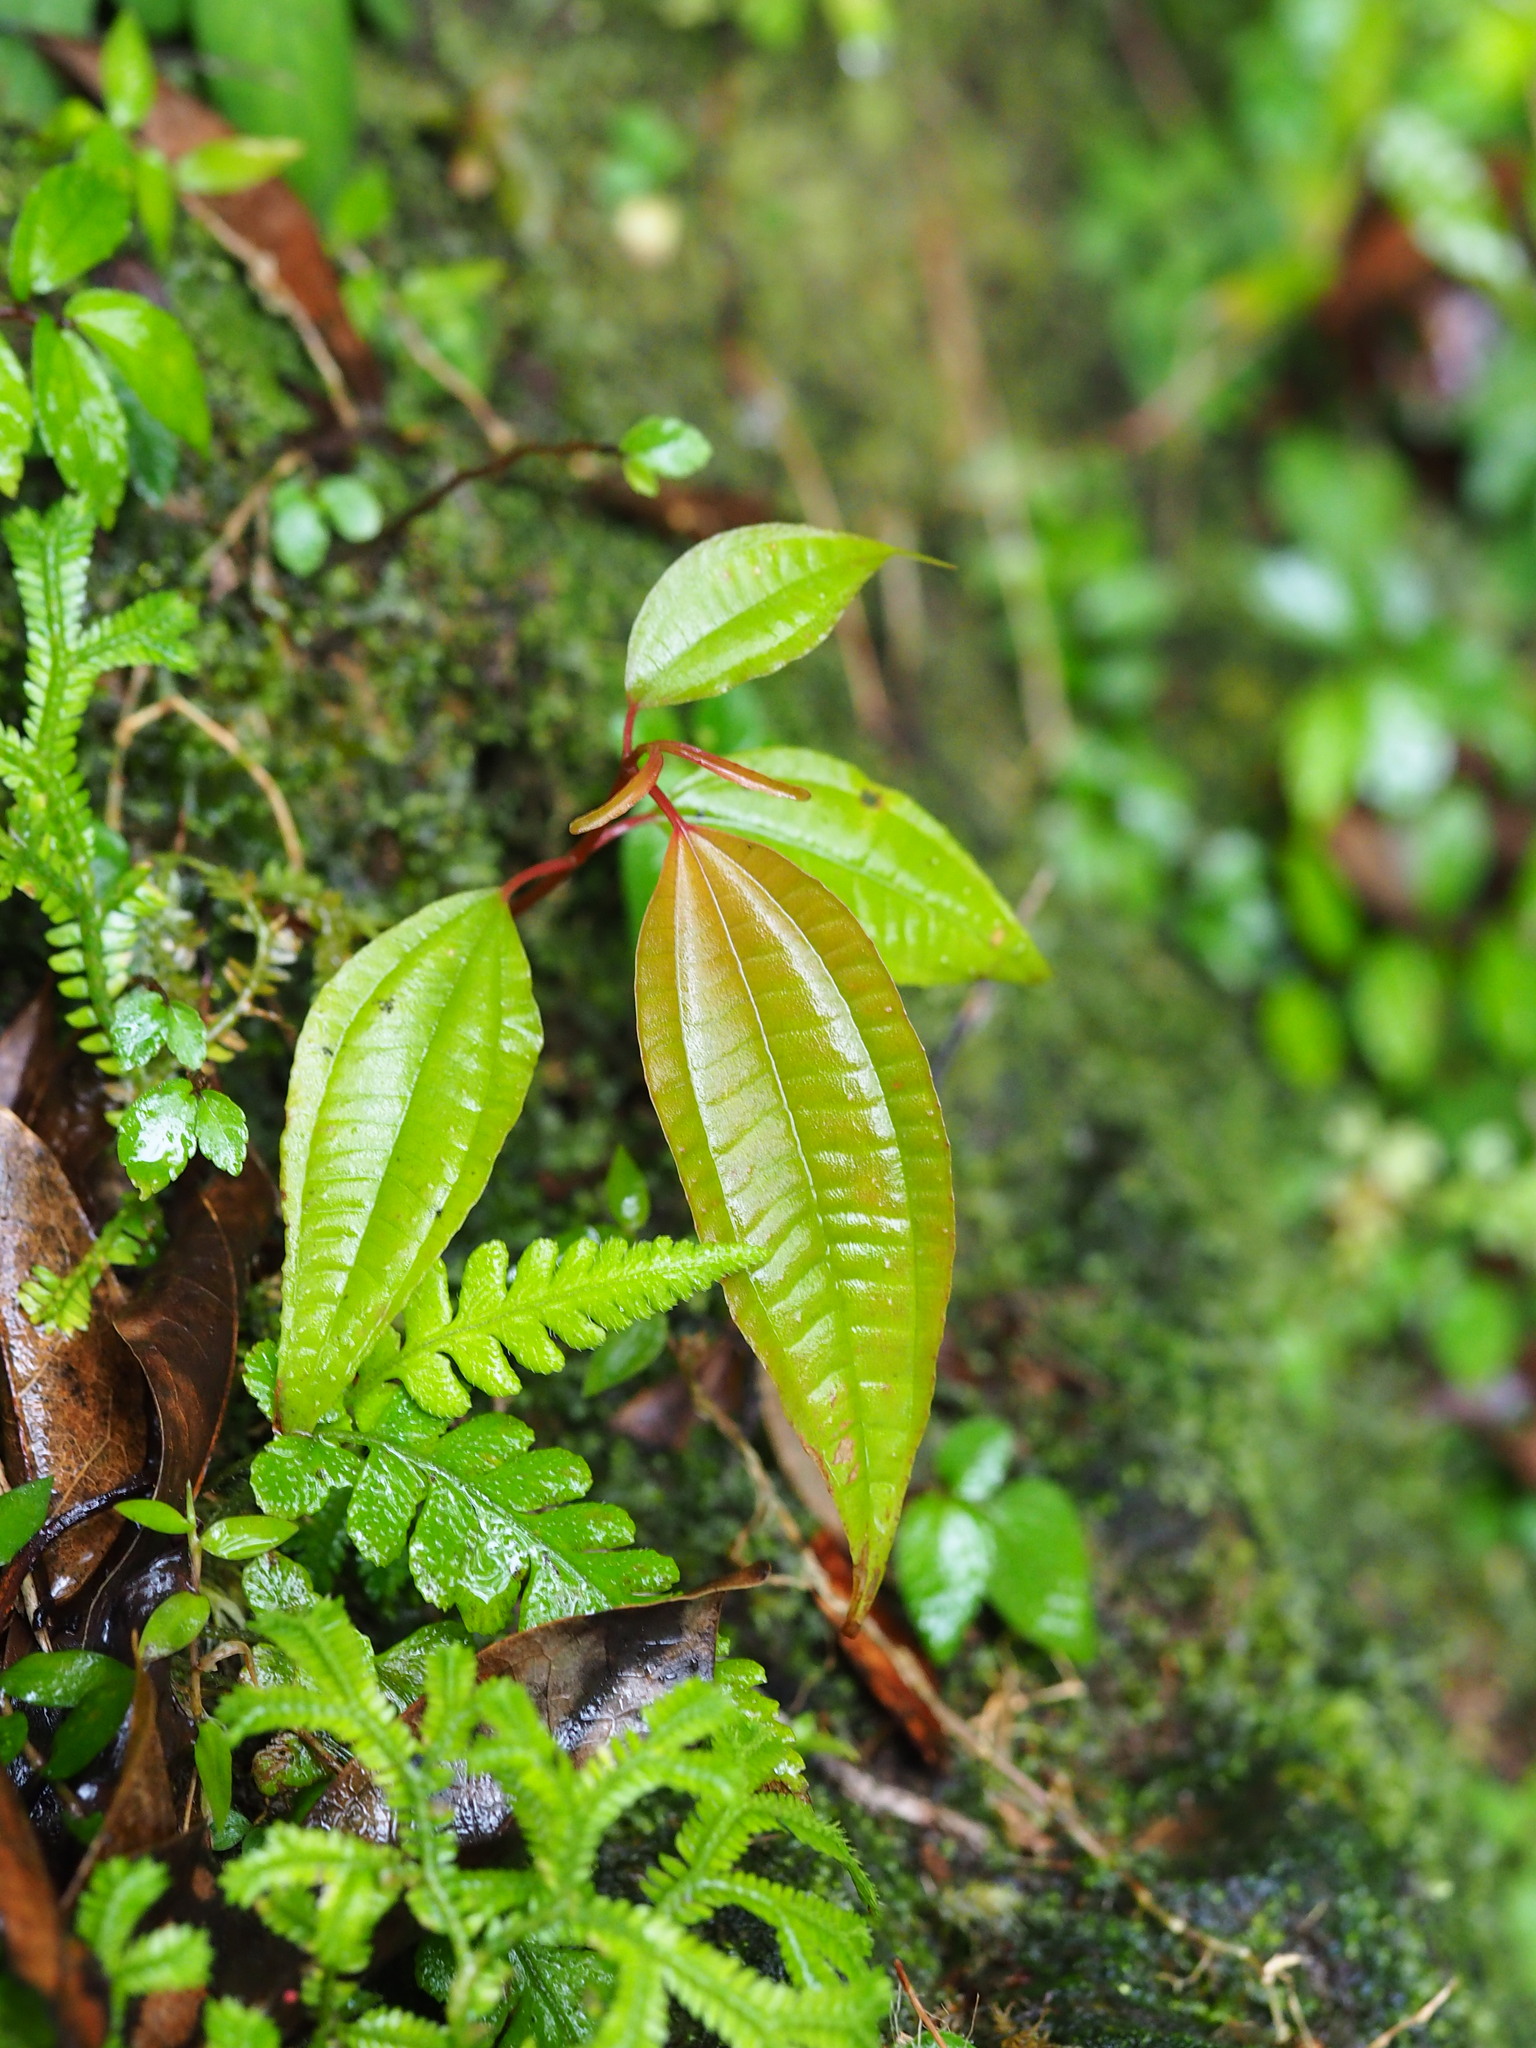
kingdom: Plantae
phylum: Tracheophyta
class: Magnoliopsida
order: Myrtales
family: Melastomataceae
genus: Blastus
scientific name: Blastus cochinchinensis
